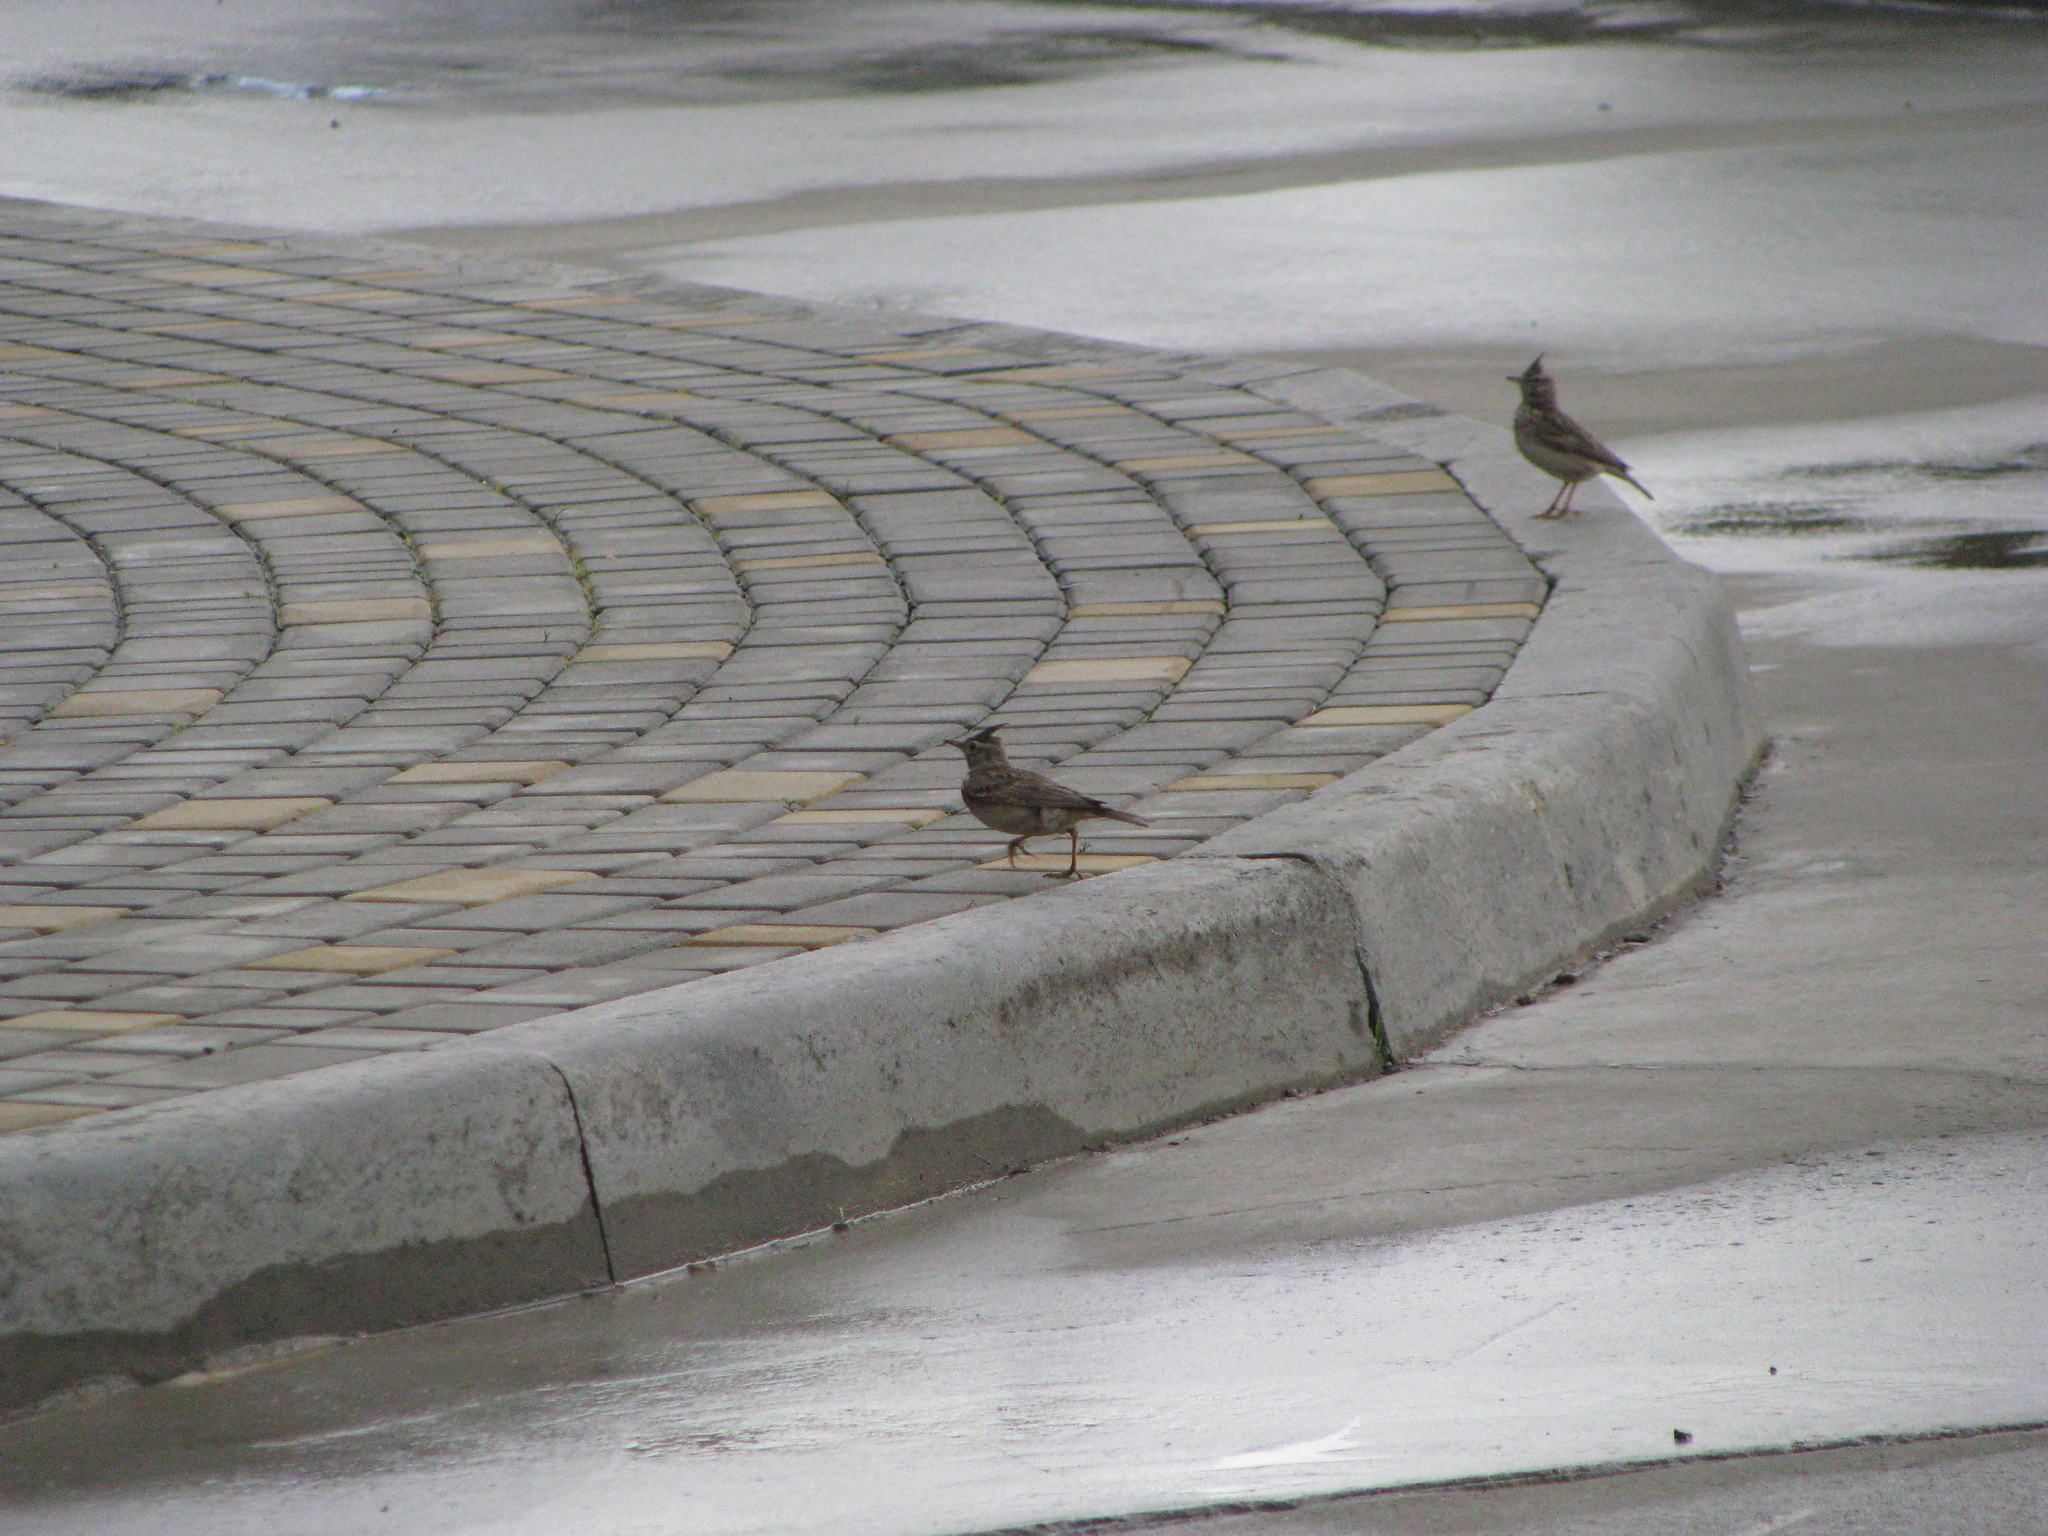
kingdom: Animalia
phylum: Chordata
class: Aves
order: Passeriformes
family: Alaudidae
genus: Galerida
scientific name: Galerida cristata
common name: Crested lark
